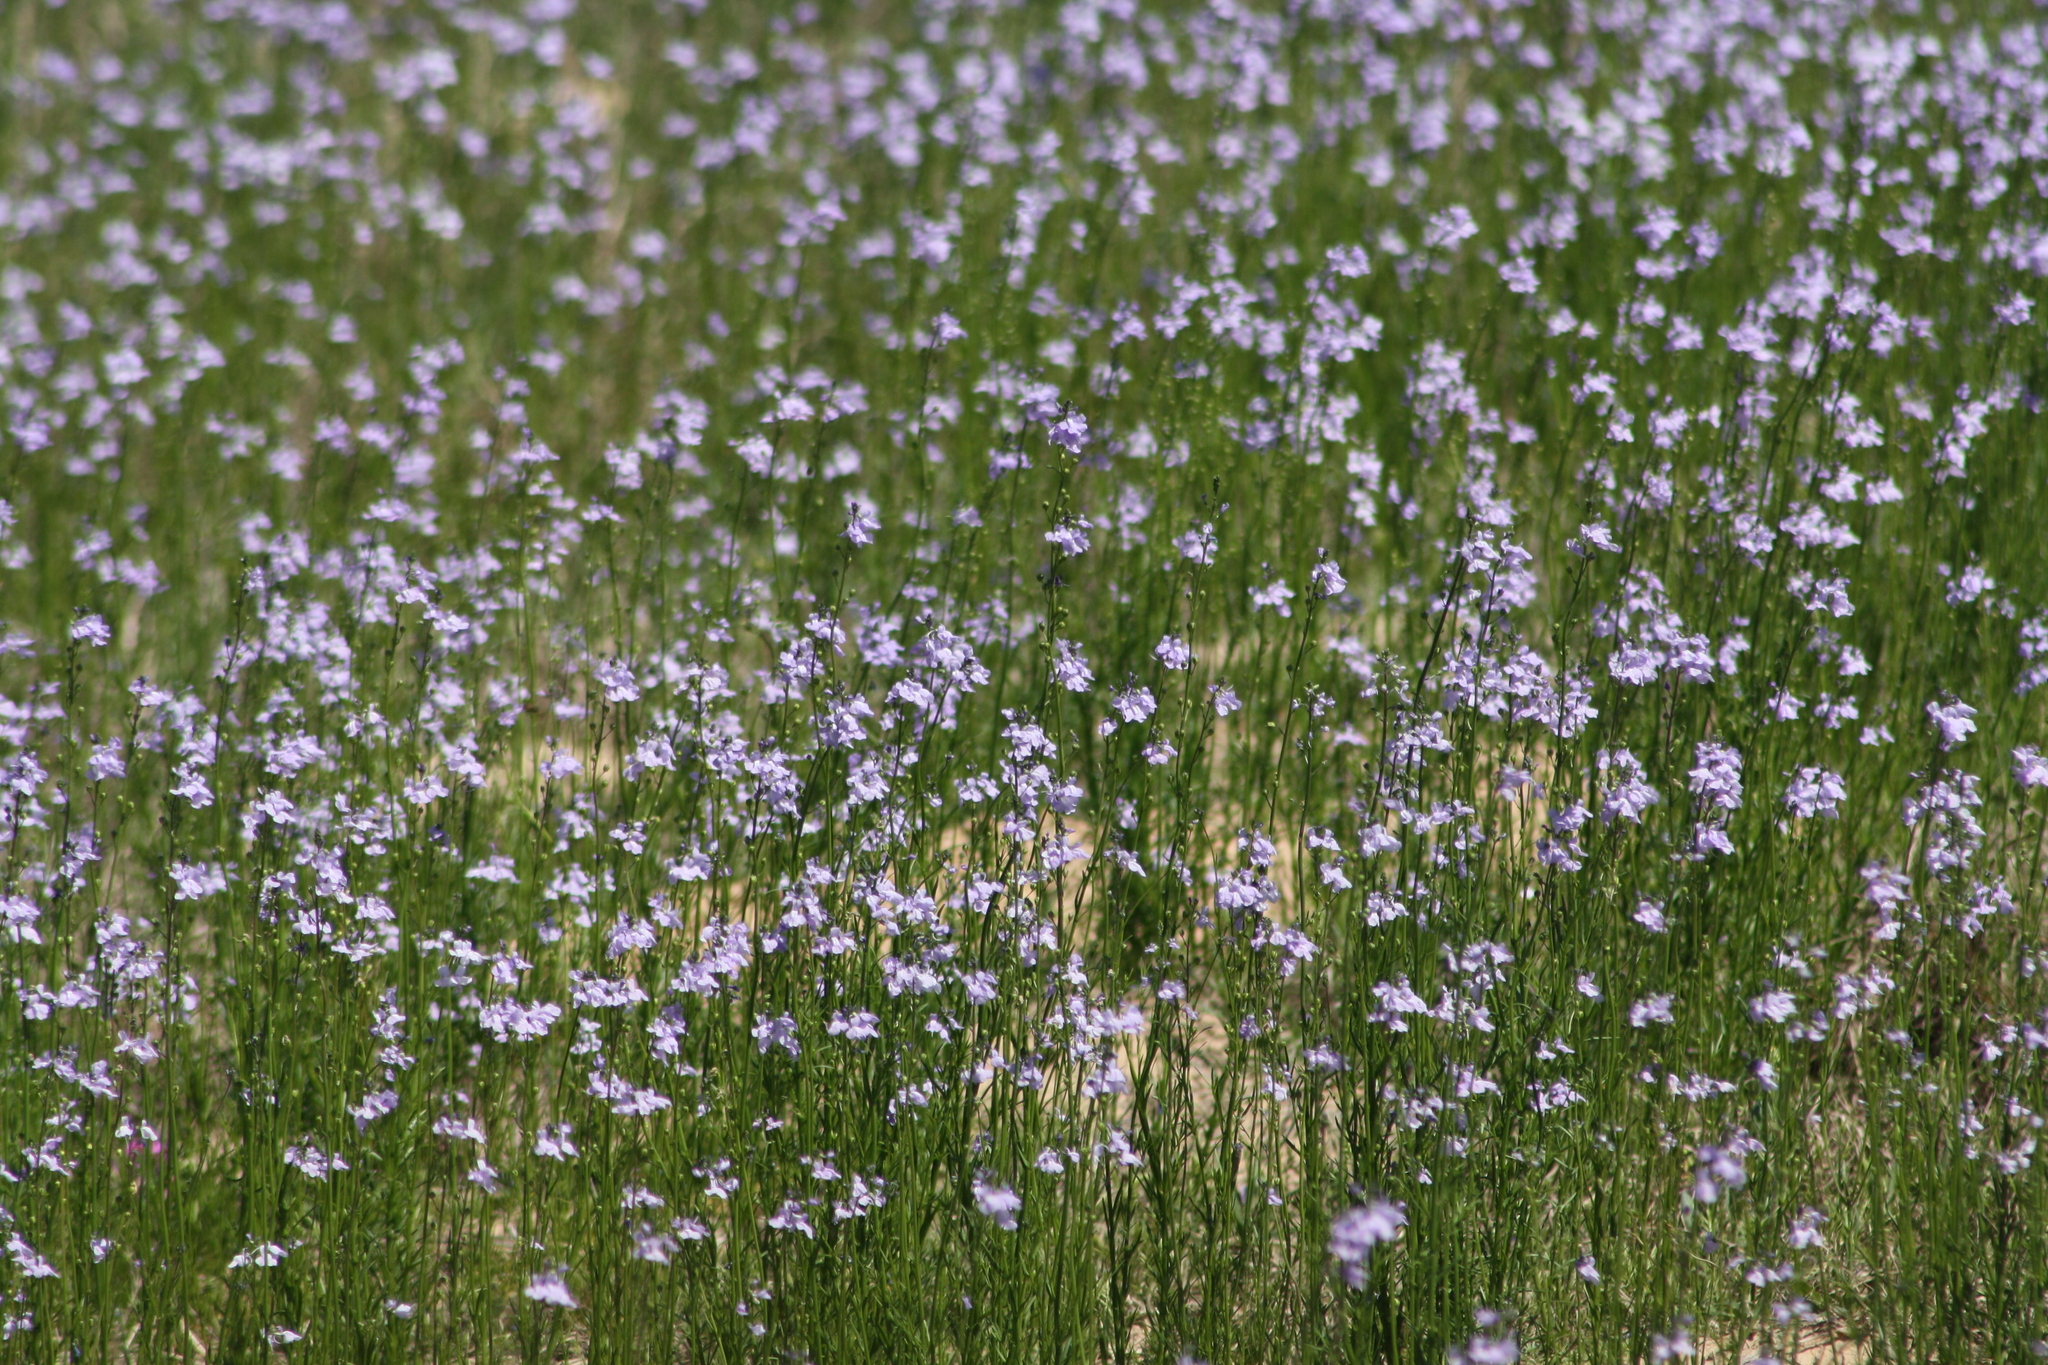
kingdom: Plantae
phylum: Tracheophyta
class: Magnoliopsida
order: Lamiales
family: Plantaginaceae
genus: Nuttallanthus
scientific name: Nuttallanthus texanus
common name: Texas toadflax
